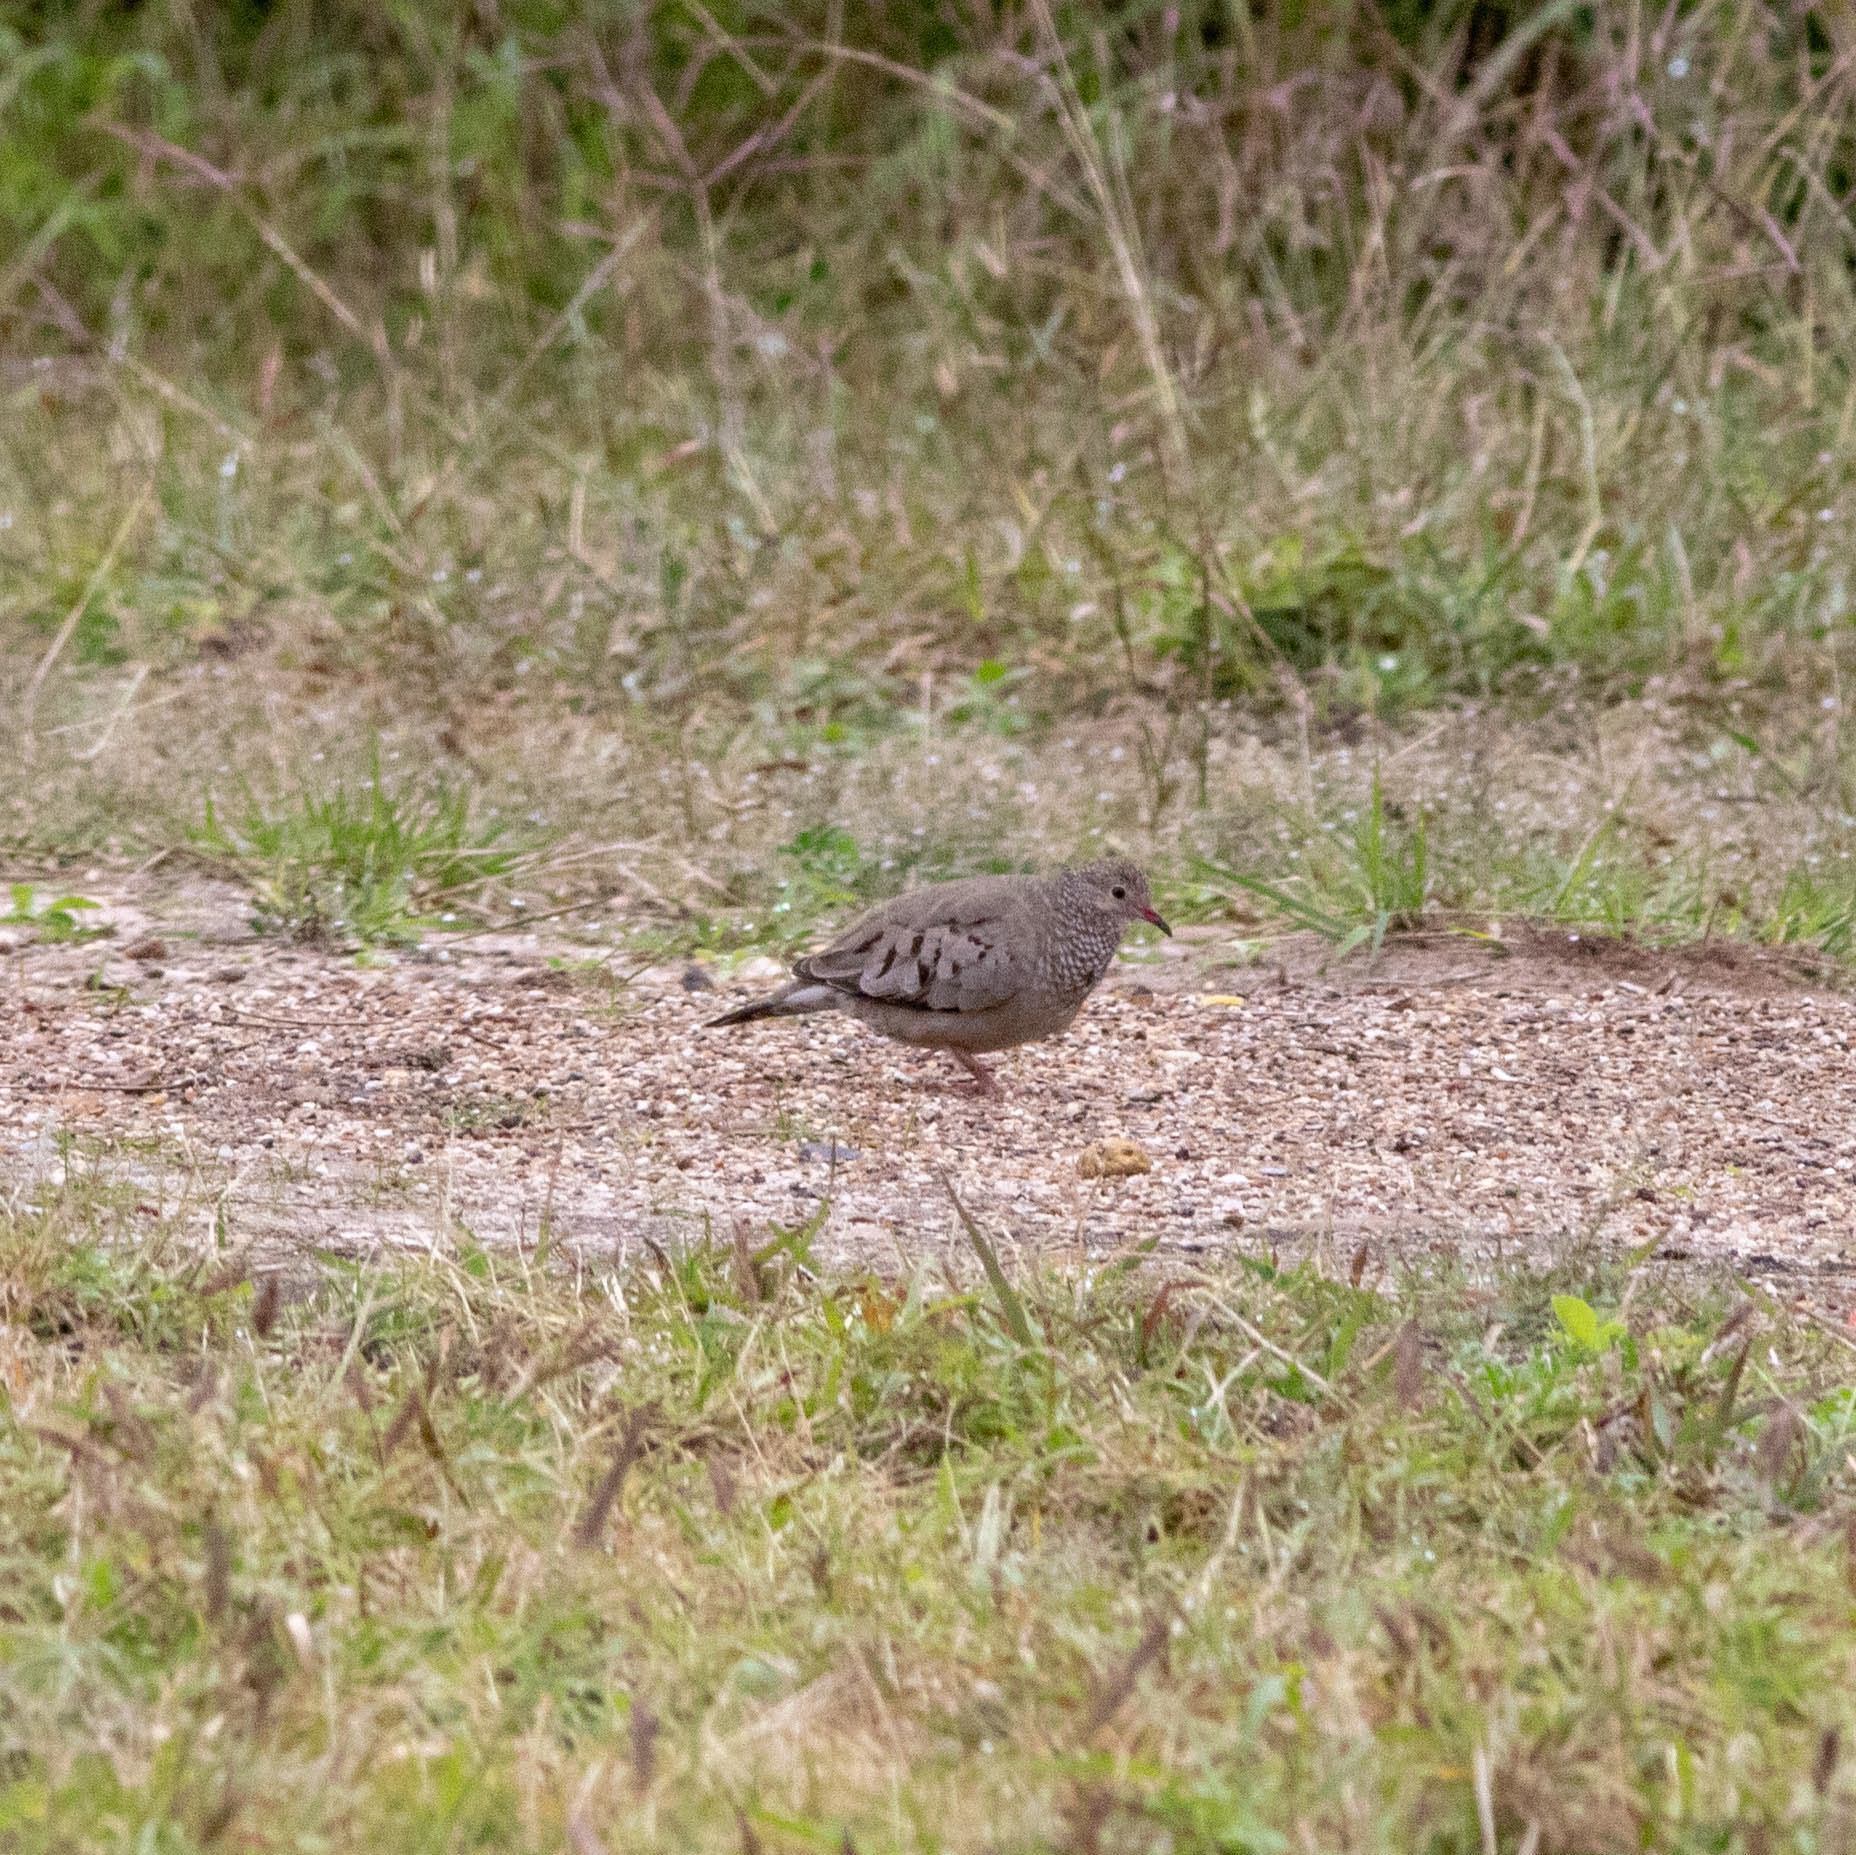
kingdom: Animalia
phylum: Chordata
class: Aves
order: Columbiformes
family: Columbidae
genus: Columbina
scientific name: Columbina passerina
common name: Common ground-dove
